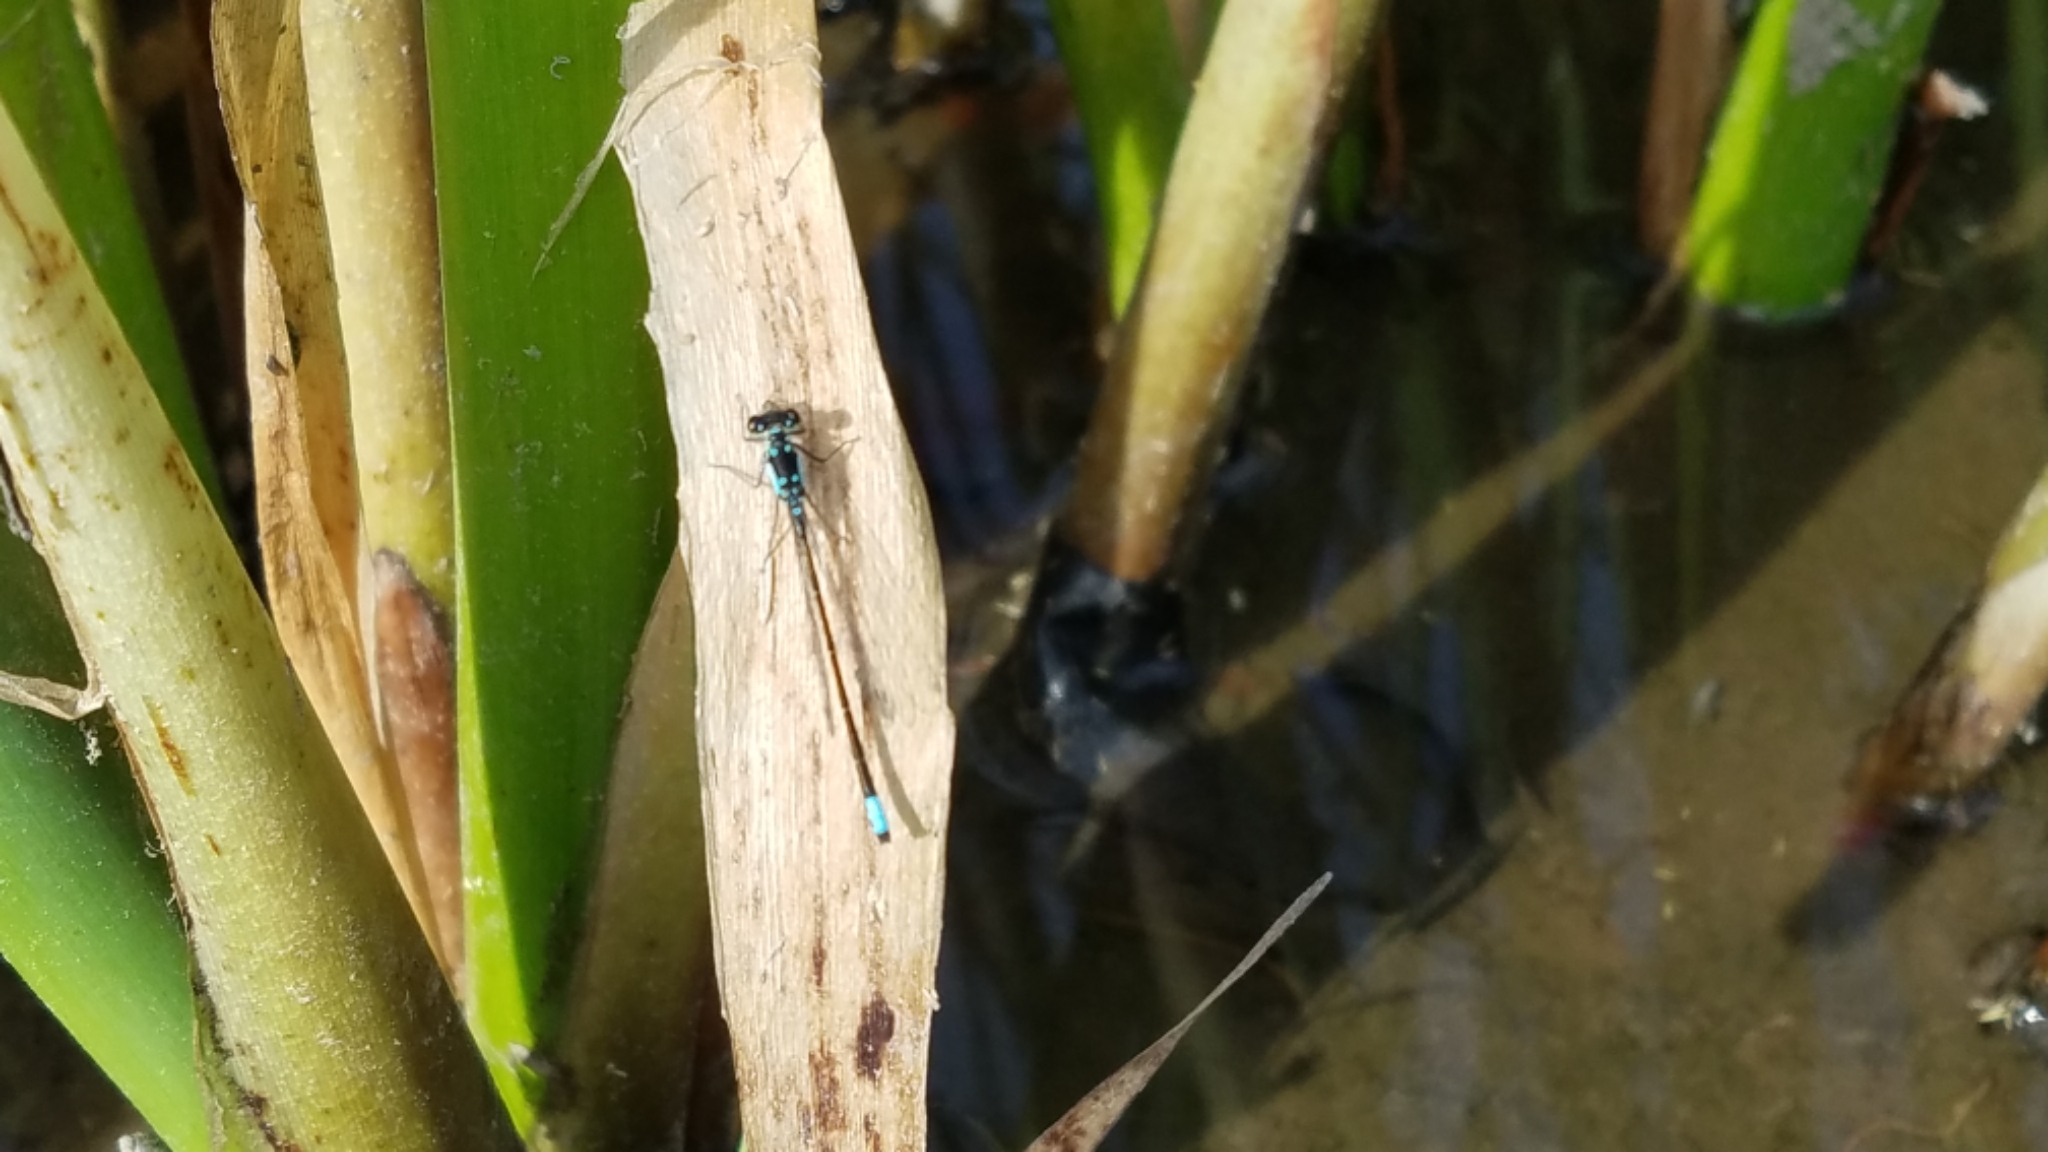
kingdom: Animalia
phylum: Arthropoda
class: Insecta
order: Odonata
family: Coenagrionidae
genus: Ischnura
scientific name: Ischnura cervula
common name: Pacific forktail
